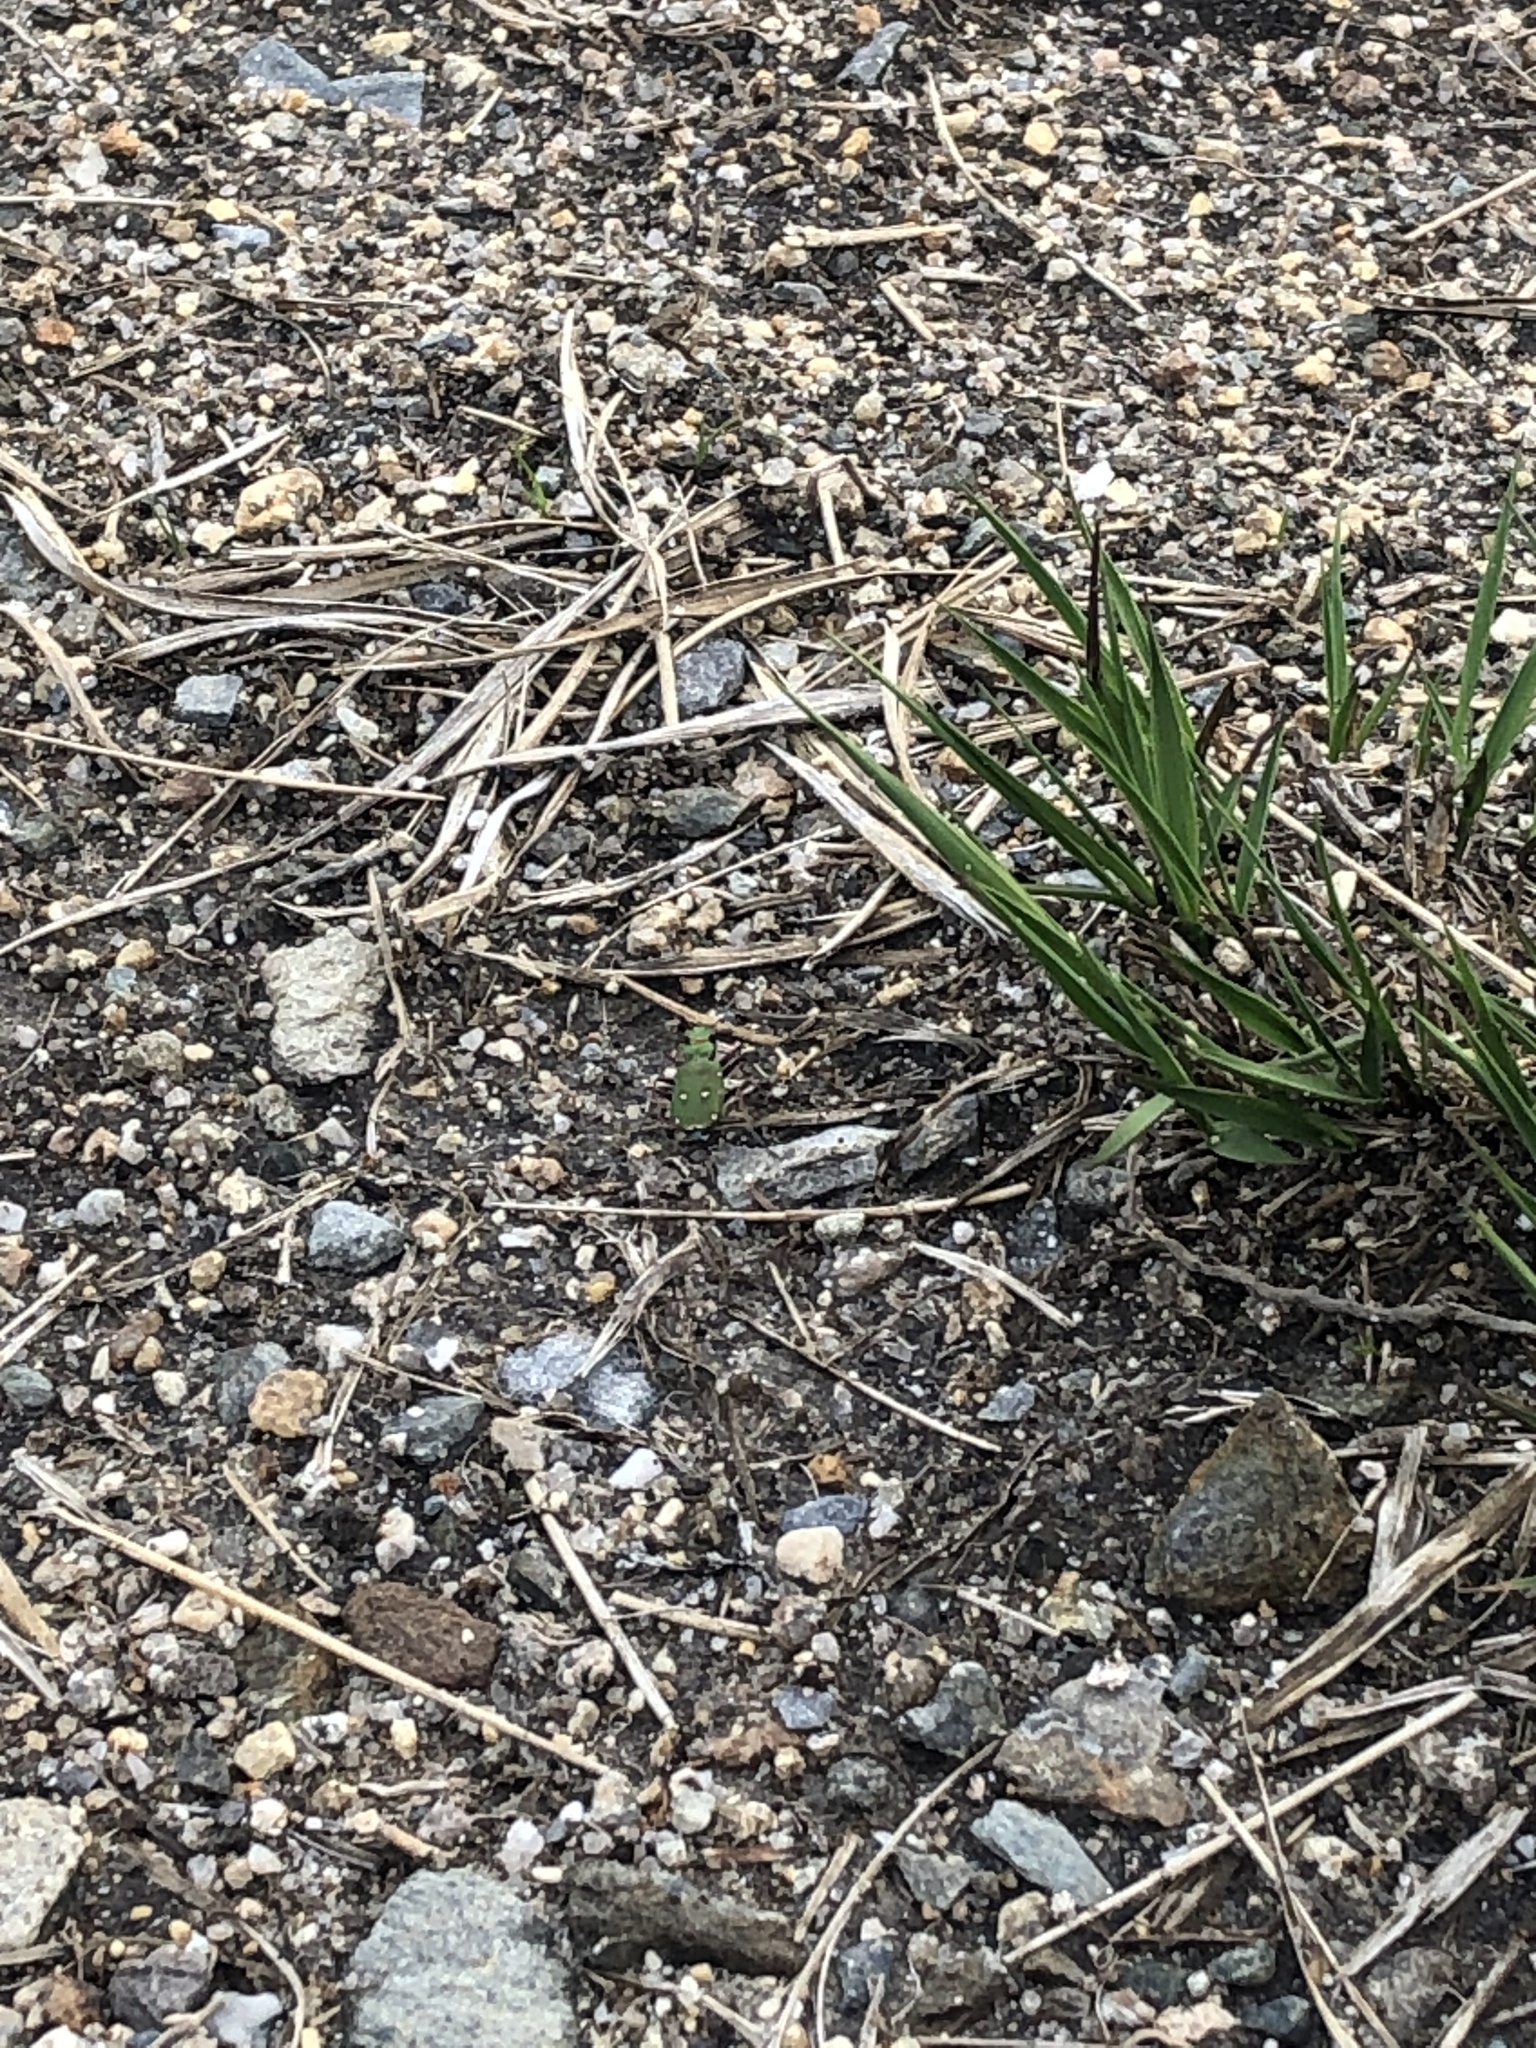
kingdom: Animalia
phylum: Arthropoda
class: Insecta
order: Coleoptera
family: Carabidae
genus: Cicindela
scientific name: Cicindela campestris
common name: Common tiger beetle
